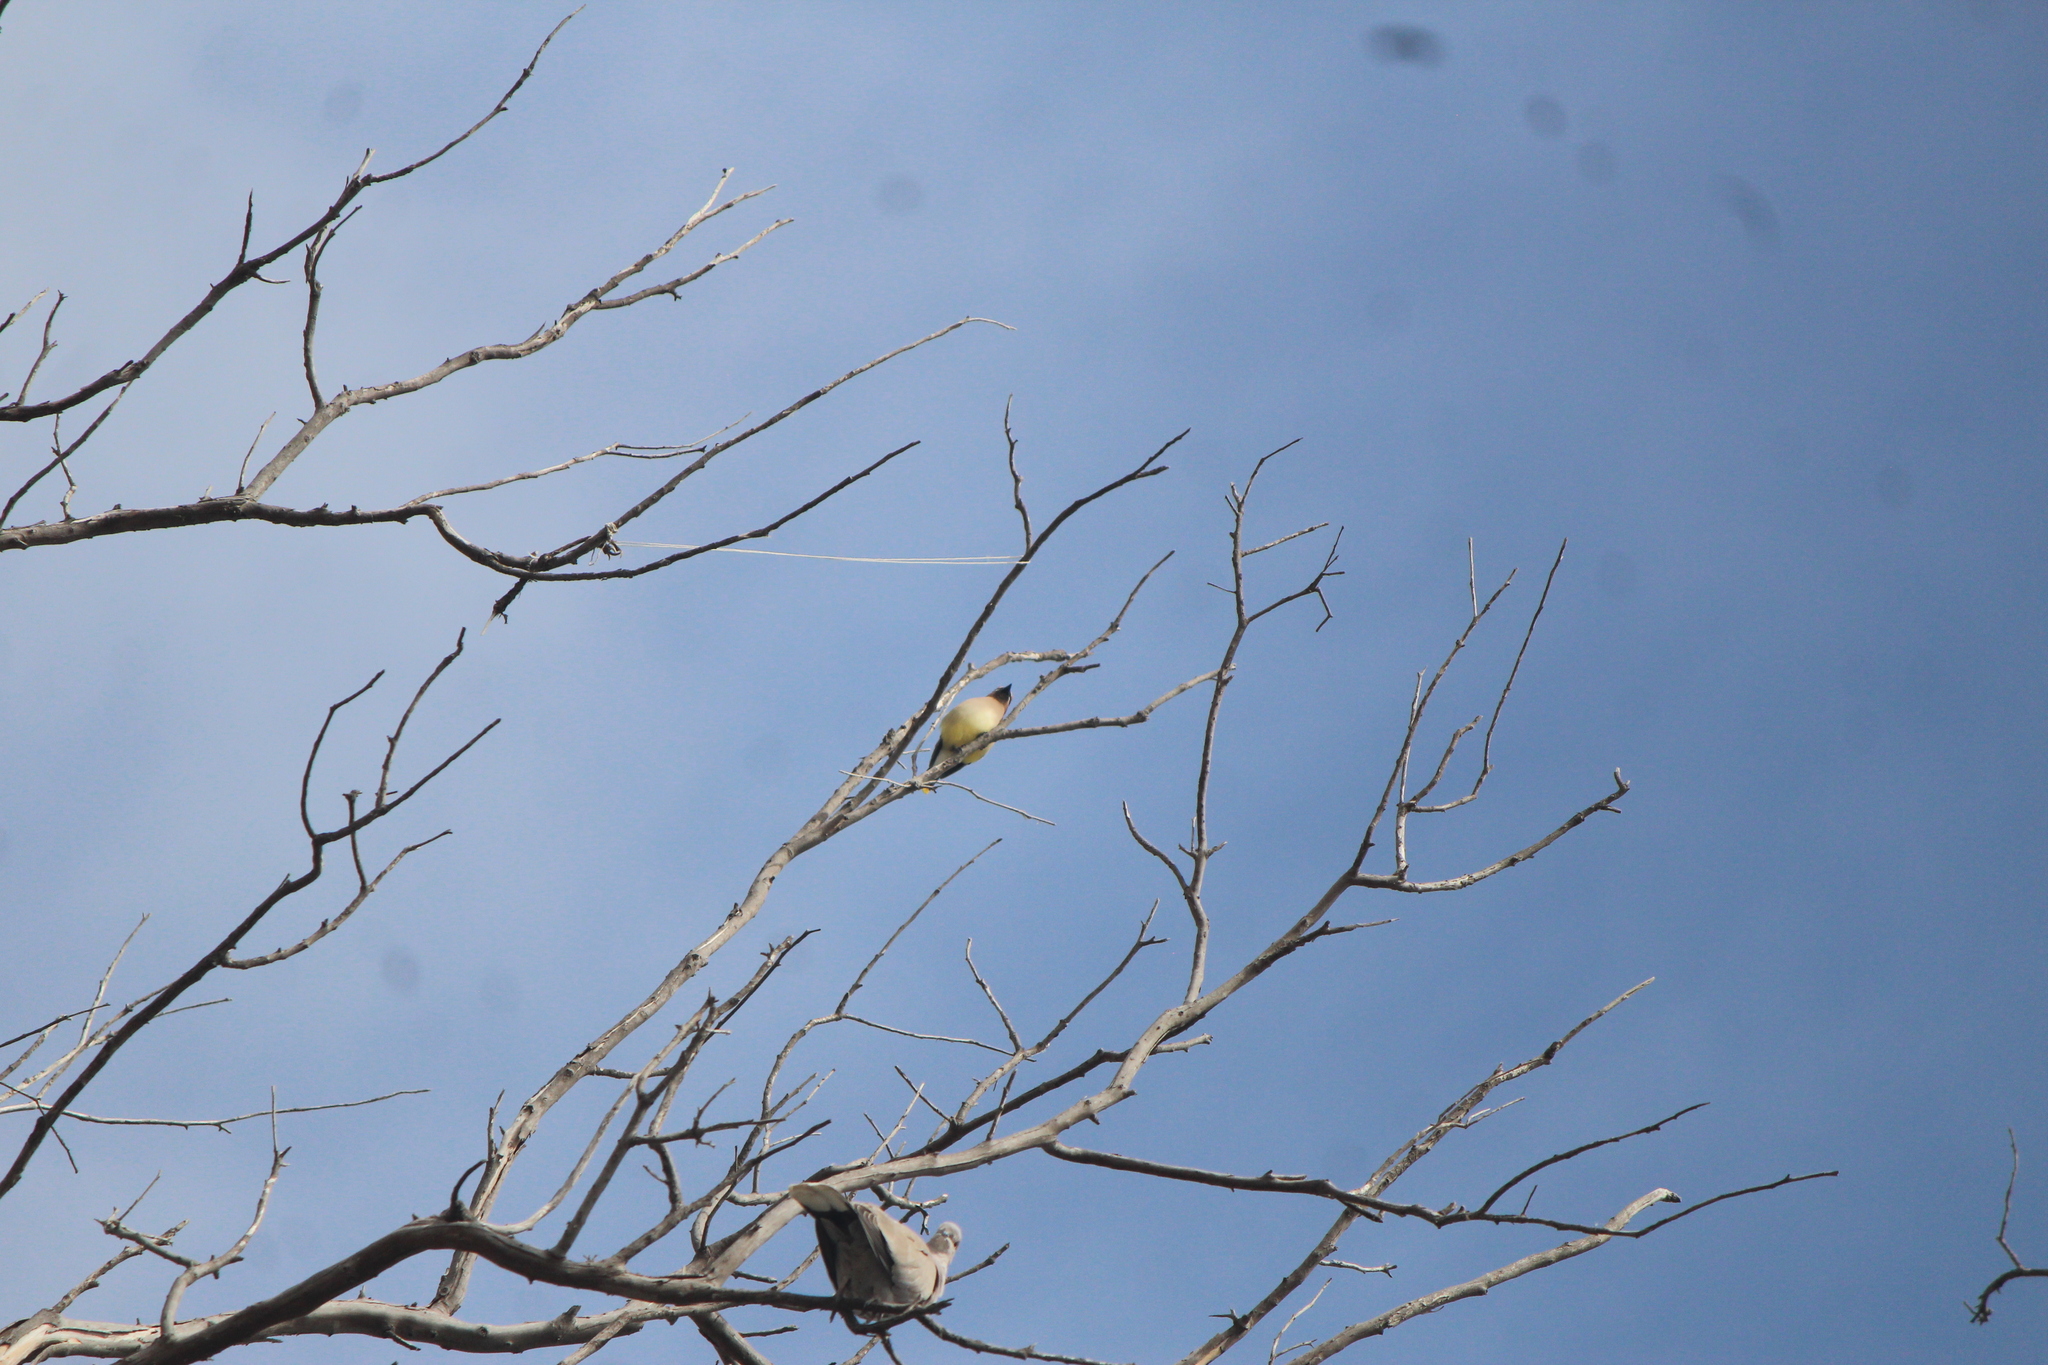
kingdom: Animalia
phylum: Chordata
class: Aves
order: Passeriformes
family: Bombycillidae
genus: Bombycilla
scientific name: Bombycilla cedrorum
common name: Cedar waxwing
